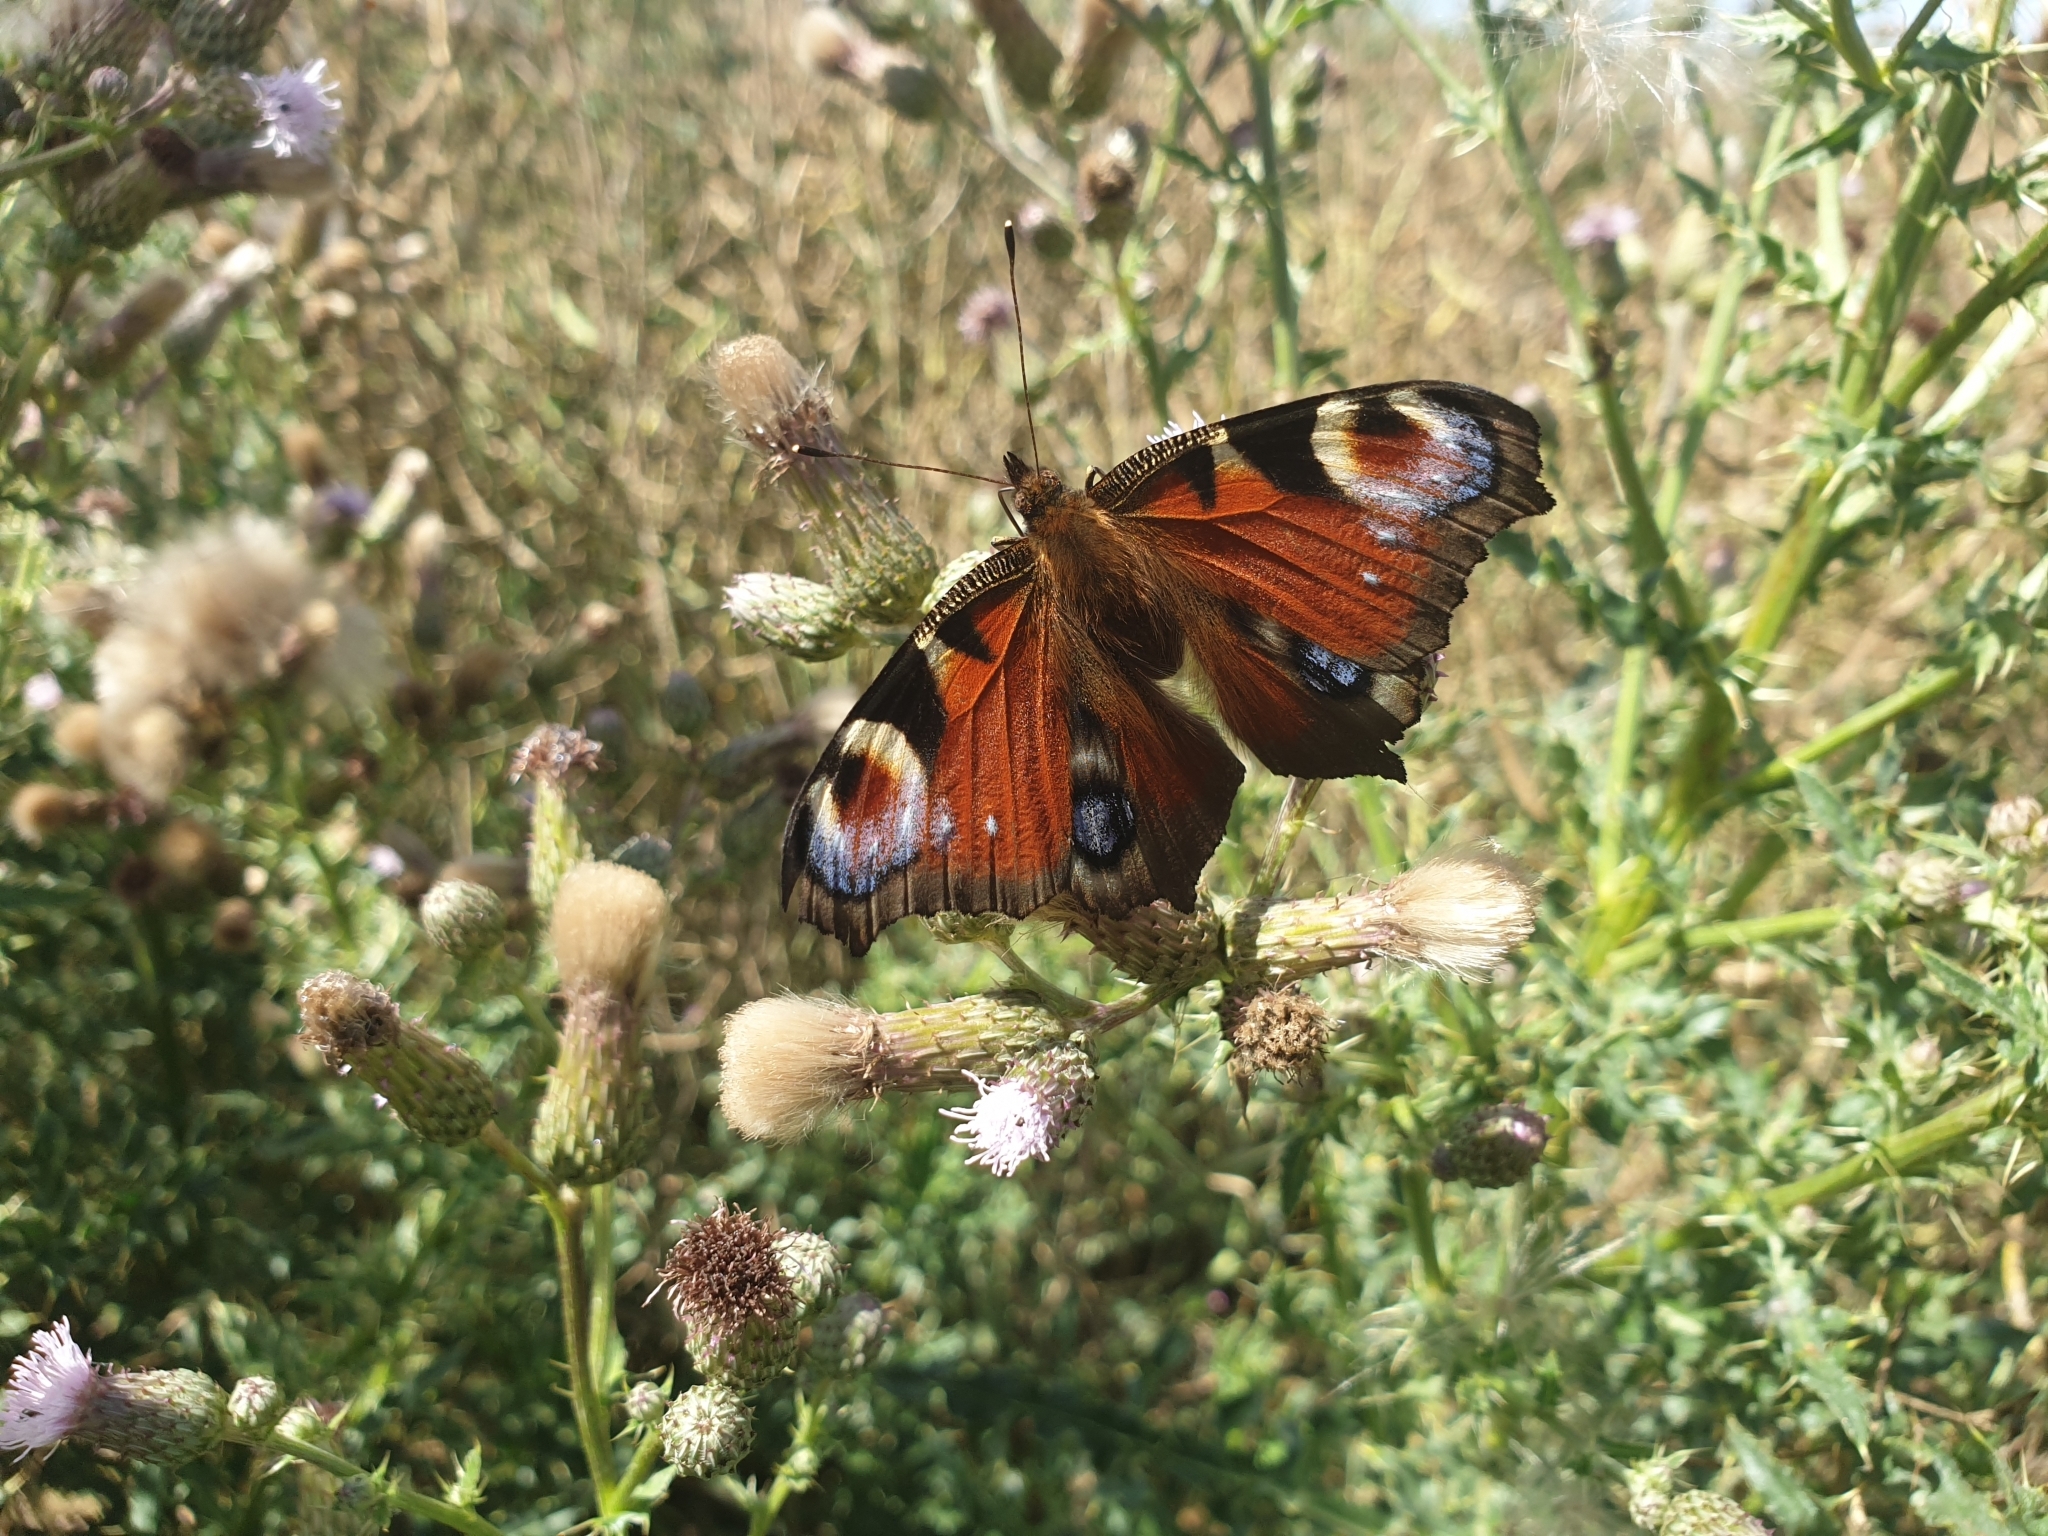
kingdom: Animalia
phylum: Arthropoda
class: Insecta
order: Lepidoptera
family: Nymphalidae
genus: Aglais
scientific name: Aglais io
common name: Peacock
